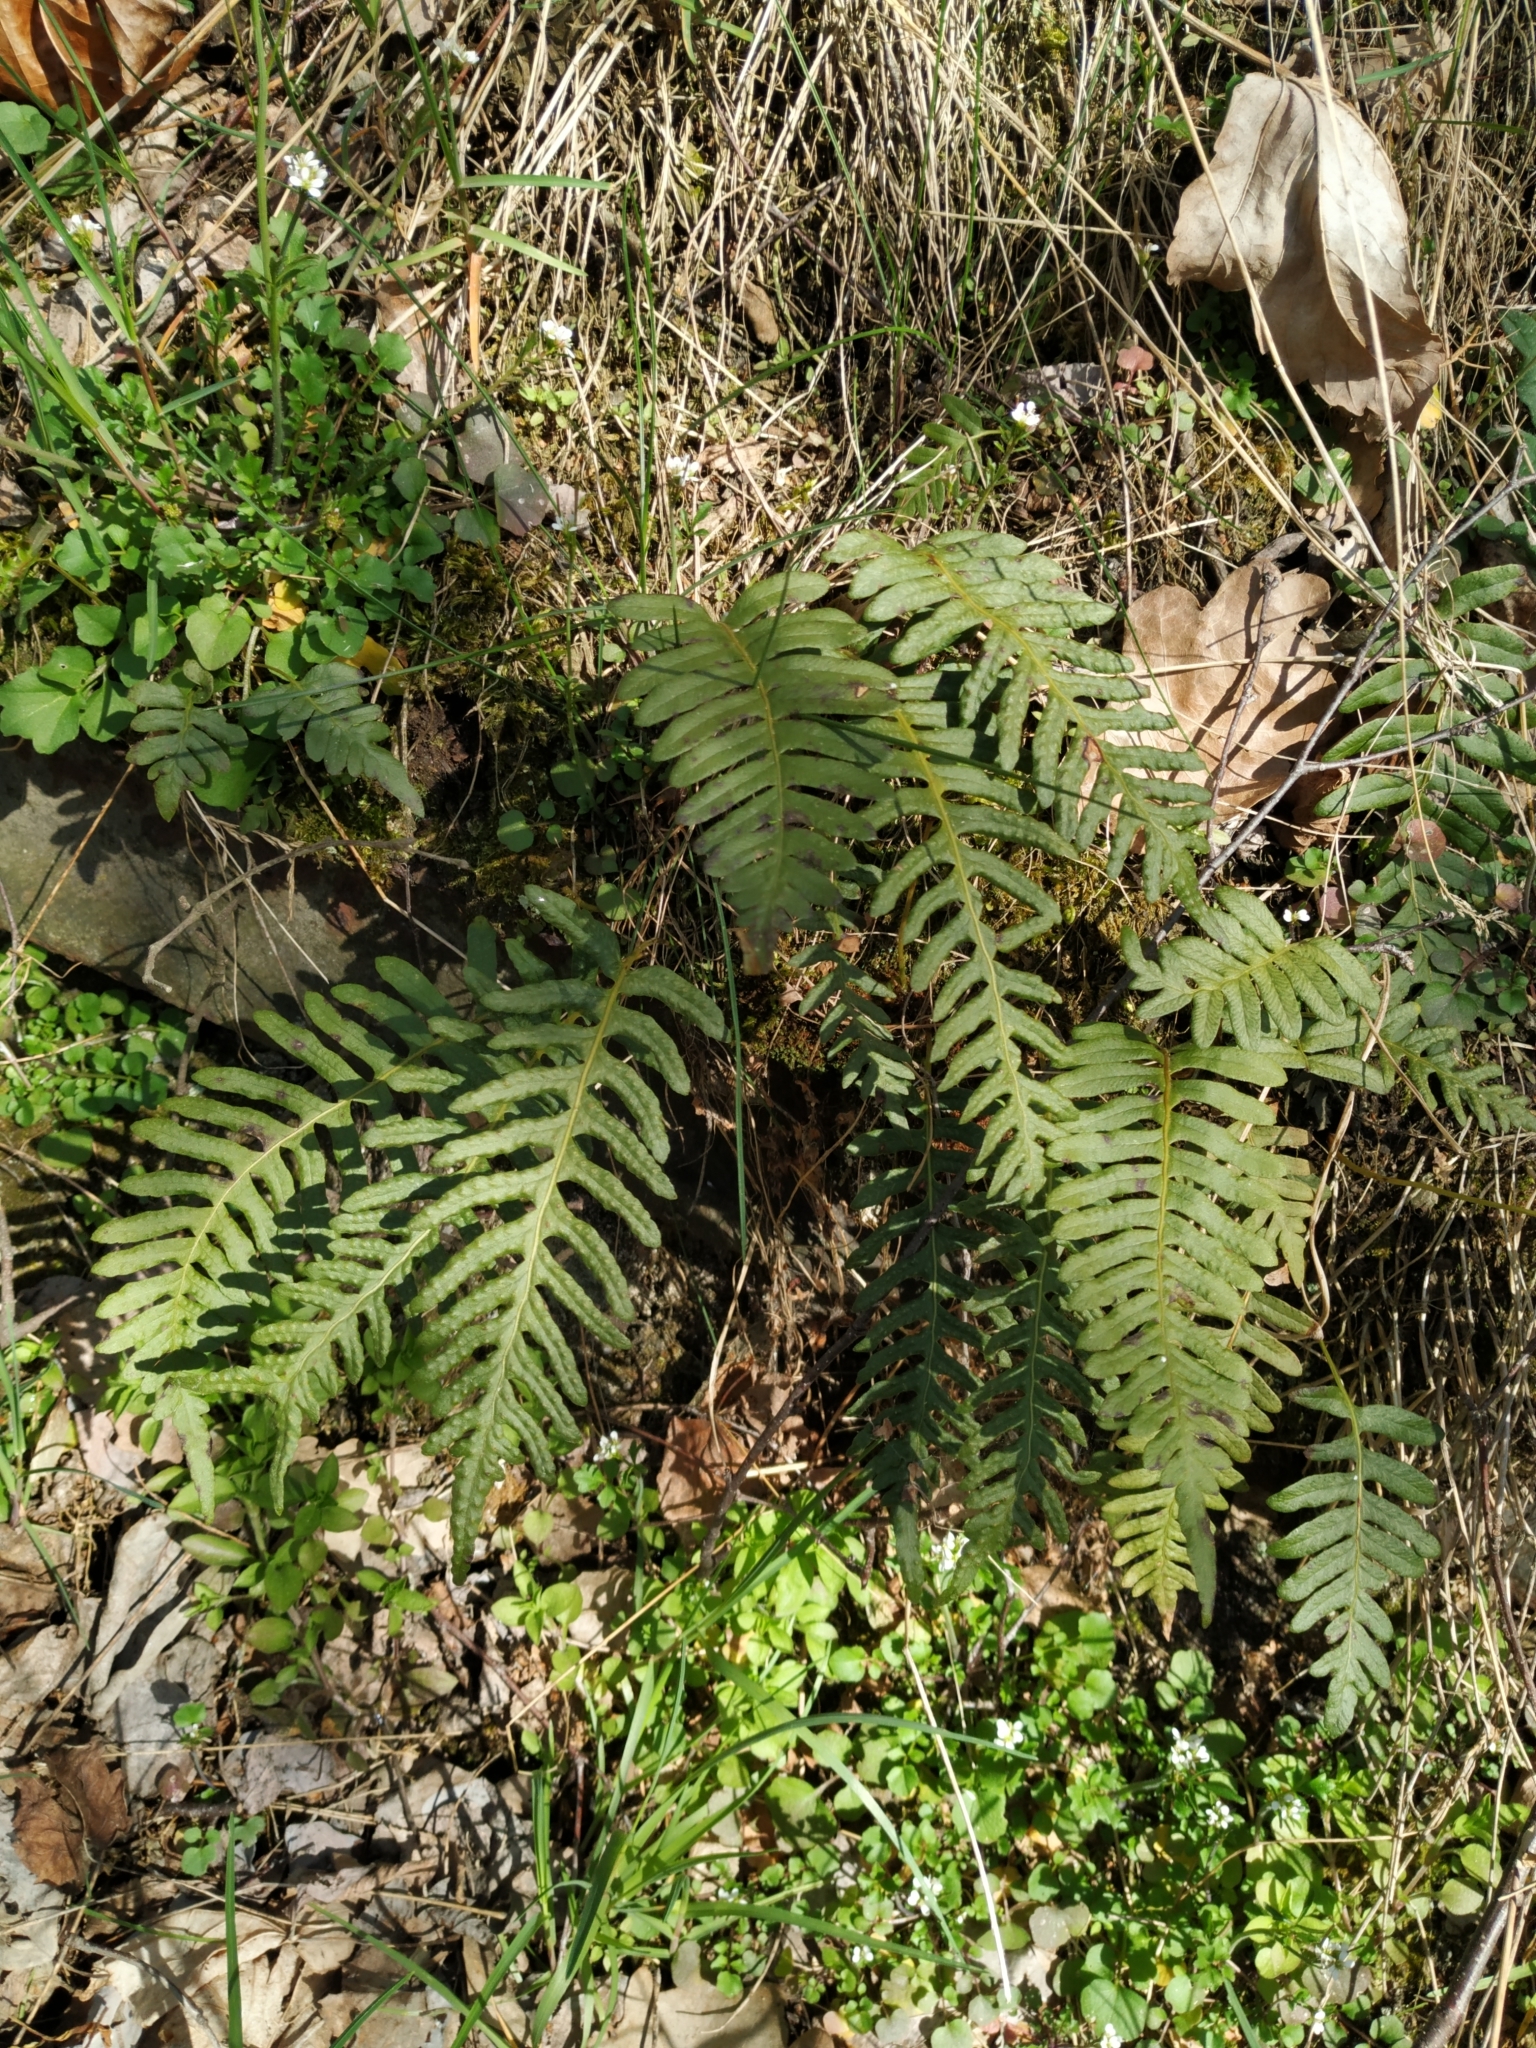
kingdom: Plantae
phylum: Tracheophyta
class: Polypodiopsida
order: Polypodiales
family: Polypodiaceae
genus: Polypodium
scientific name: Polypodium vulgare
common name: Common polypody
